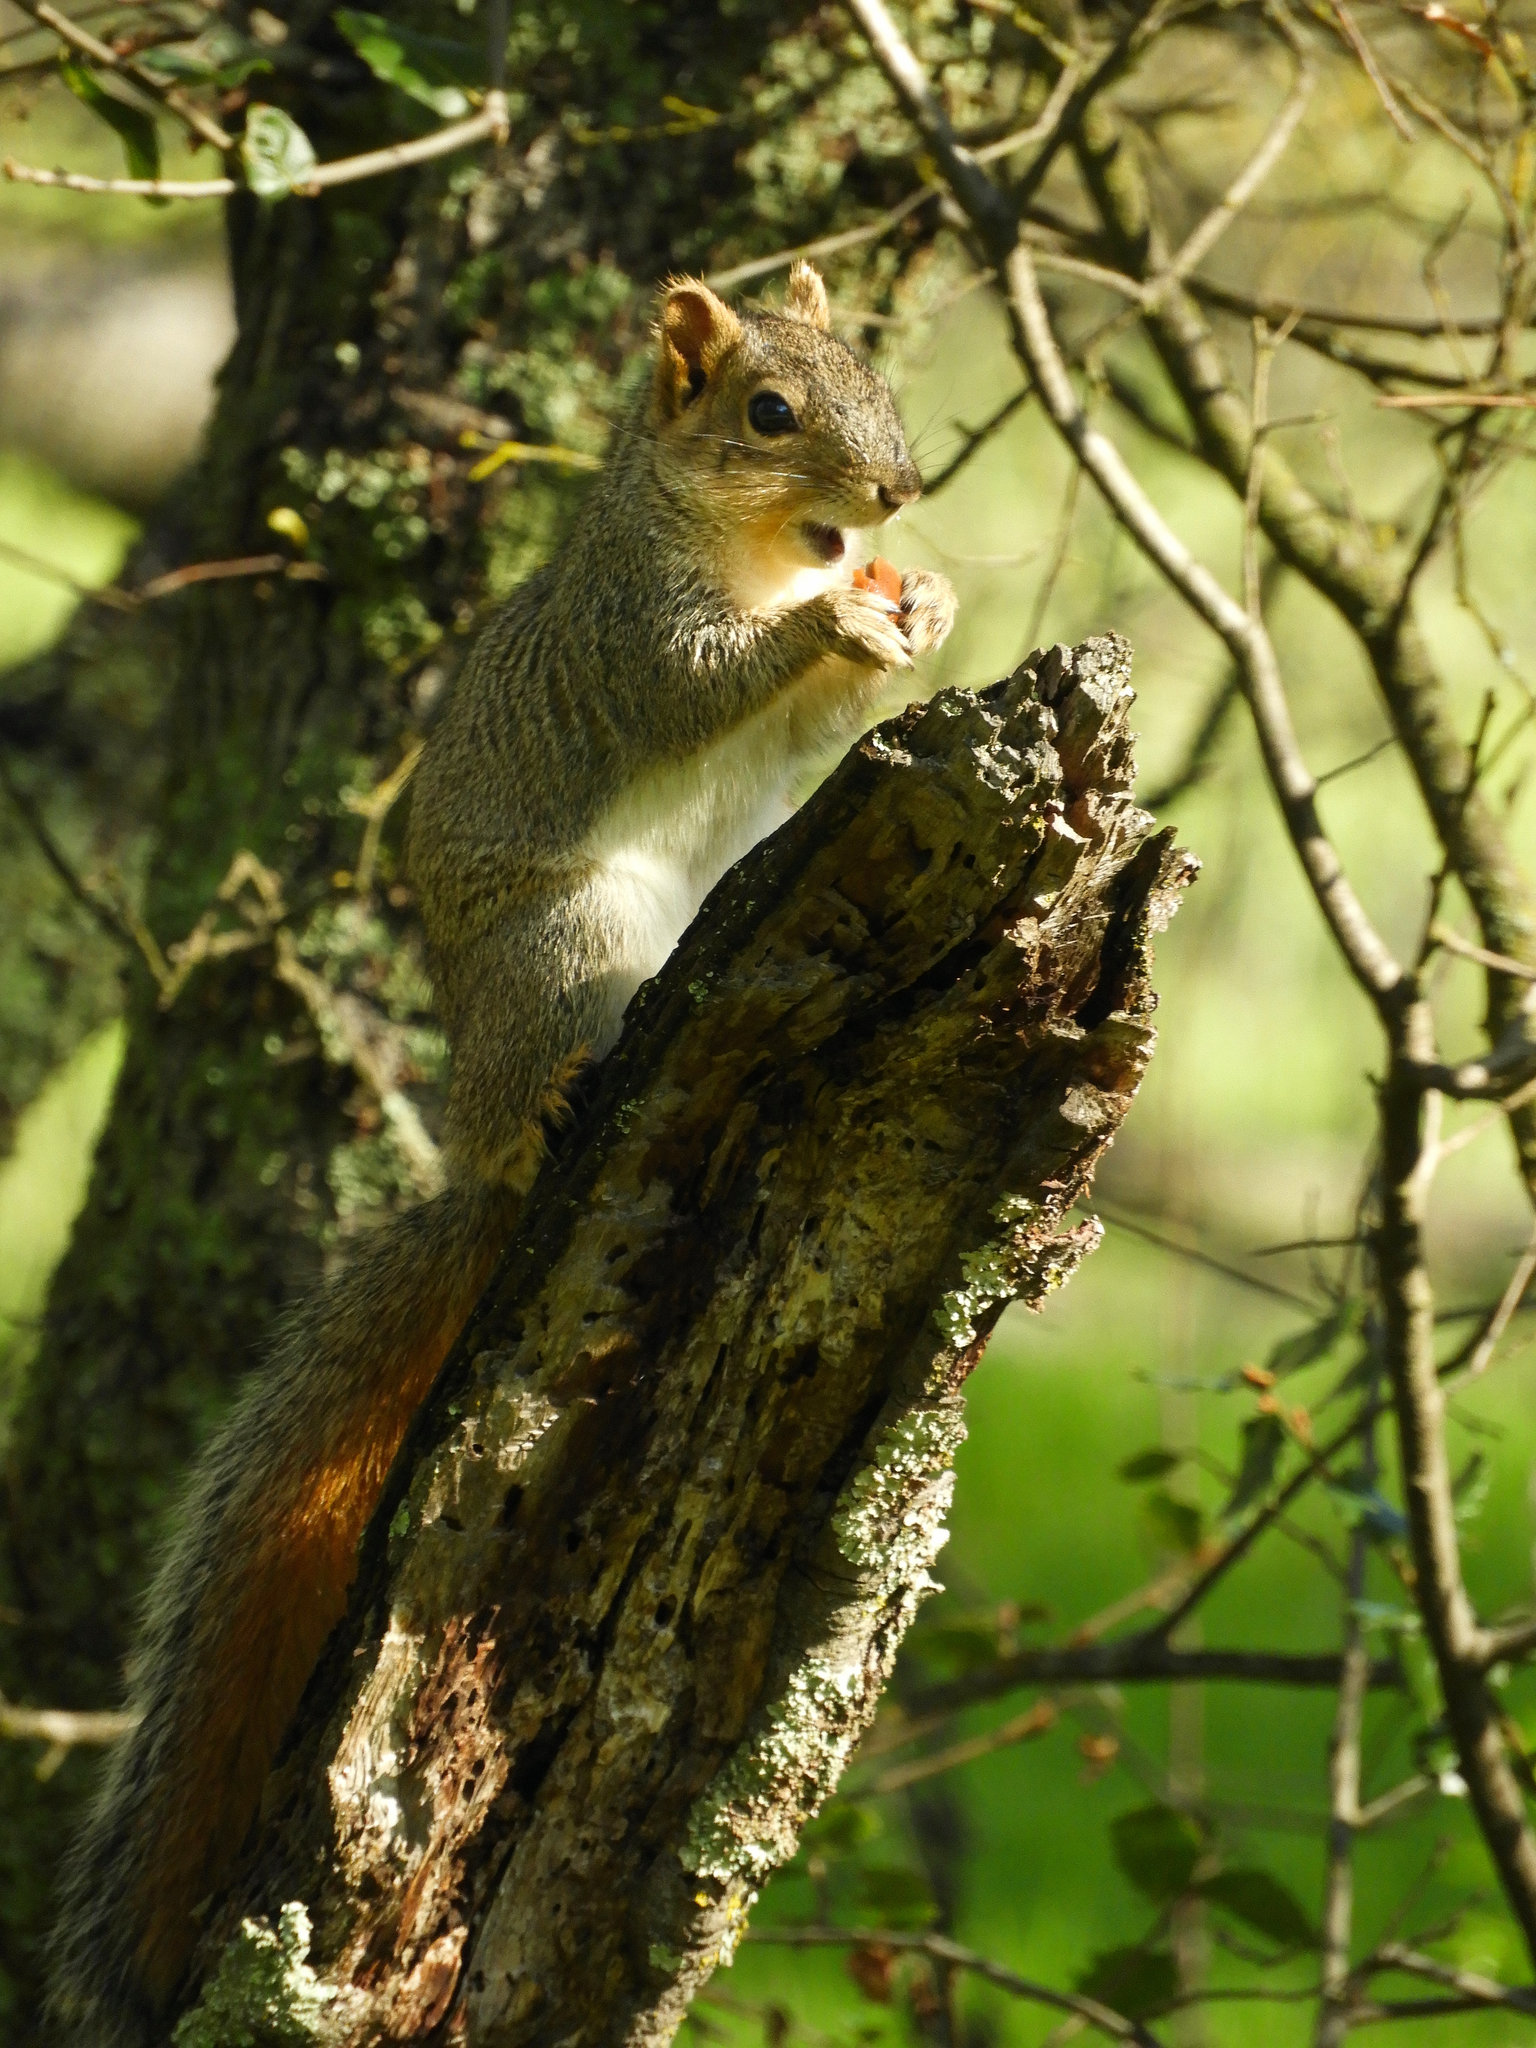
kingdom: Animalia
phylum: Chordata
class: Mammalia
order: Rodentia
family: Sciuridae
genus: Sciurus
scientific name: Sciurus niger
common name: Fox squirrel
